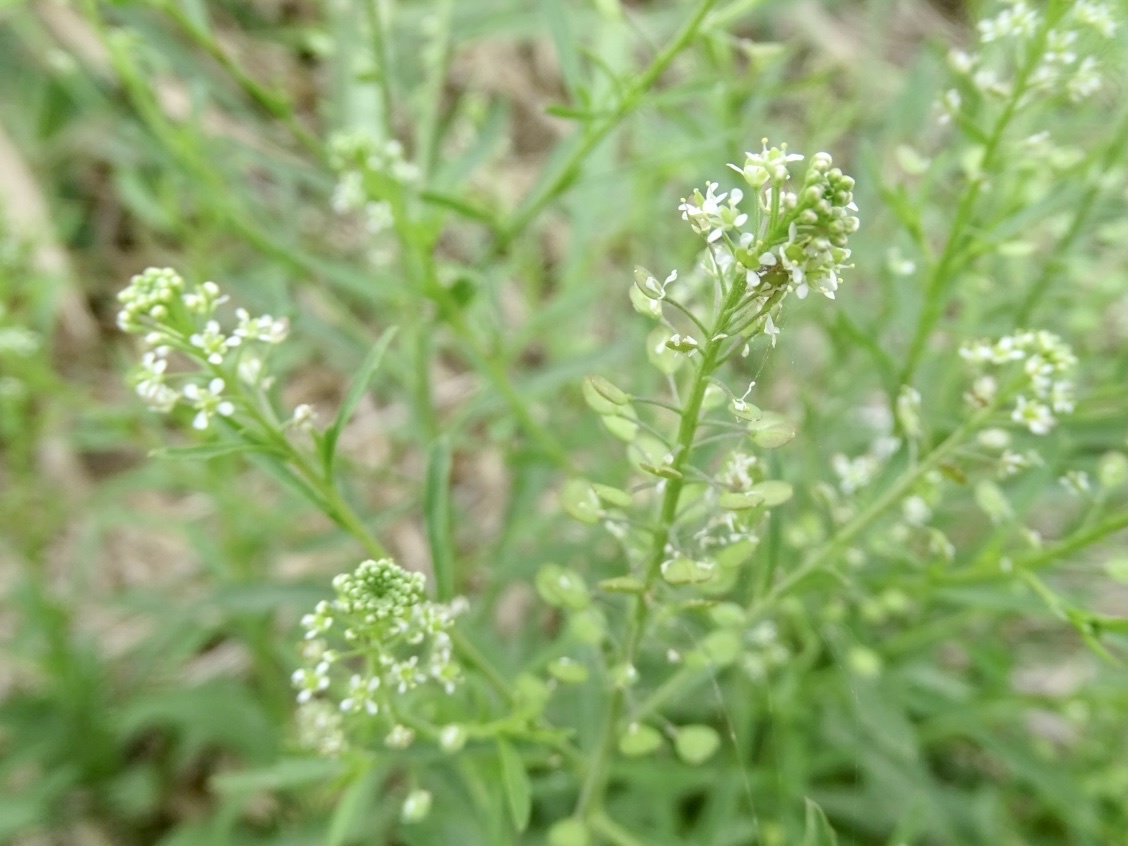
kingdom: Plantae
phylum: Tracheophyta
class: Magnoliopsida
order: Brassicales
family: Brassicaceae
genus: Lepidium
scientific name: Lepidium virginicum
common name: Least pepperwort
